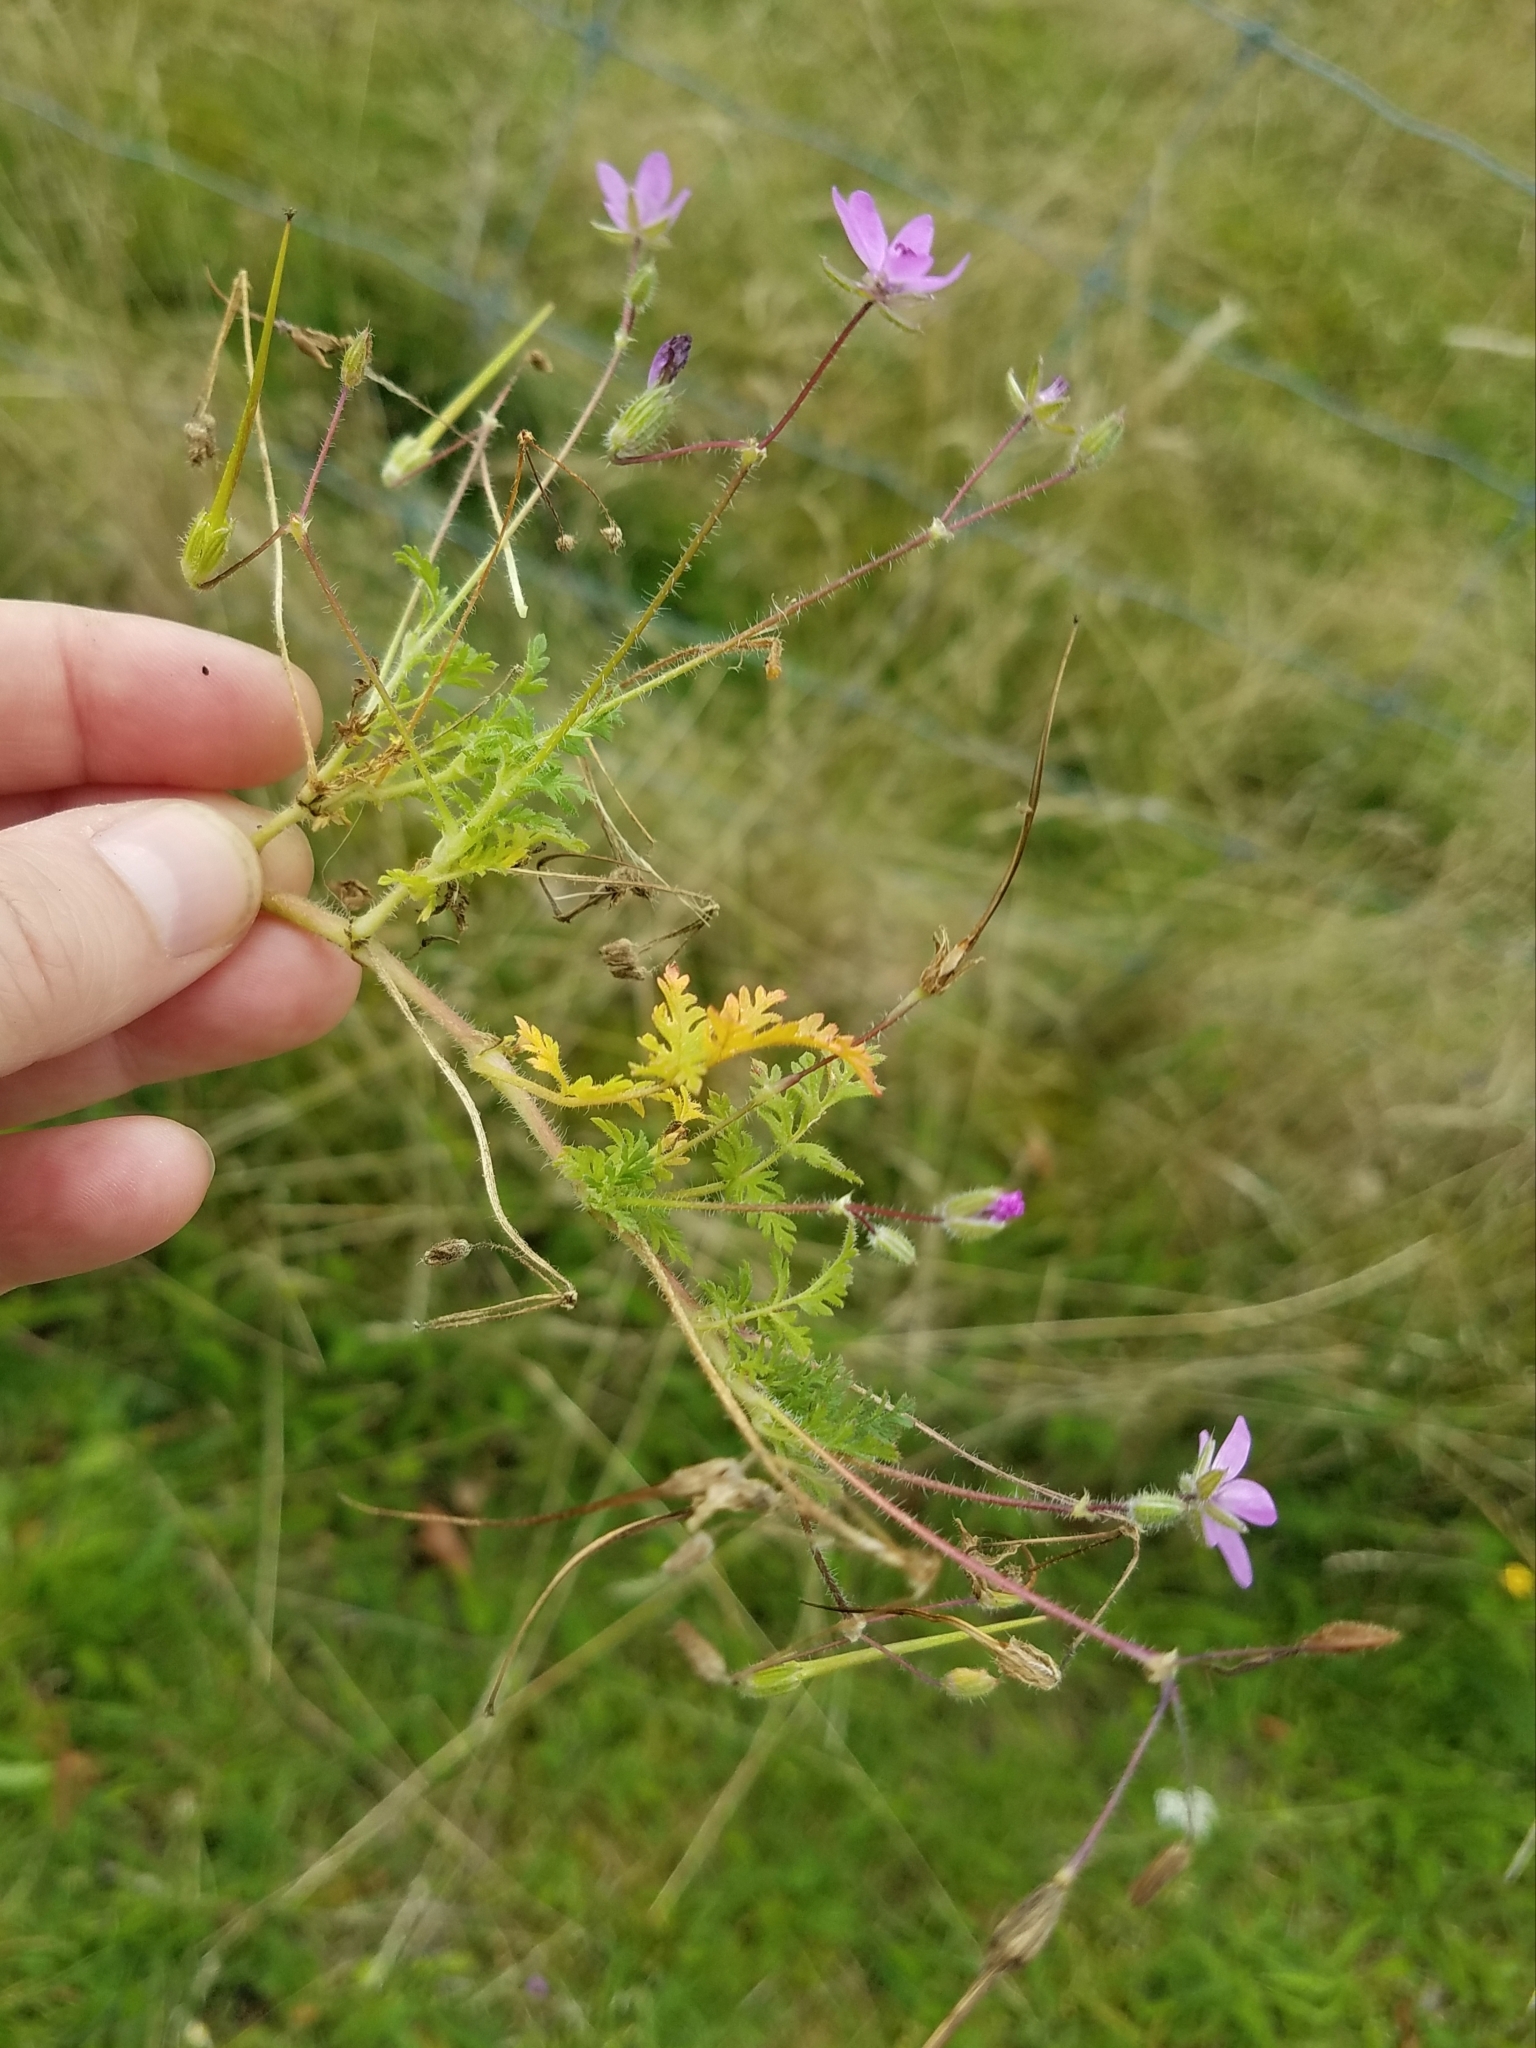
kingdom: Plantae
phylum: Tracheophyta
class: Magnoliopsida
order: Geraniales
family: Geraniaceae
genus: Erodium
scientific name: Erodium cicutarium
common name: Common stork's-bill
